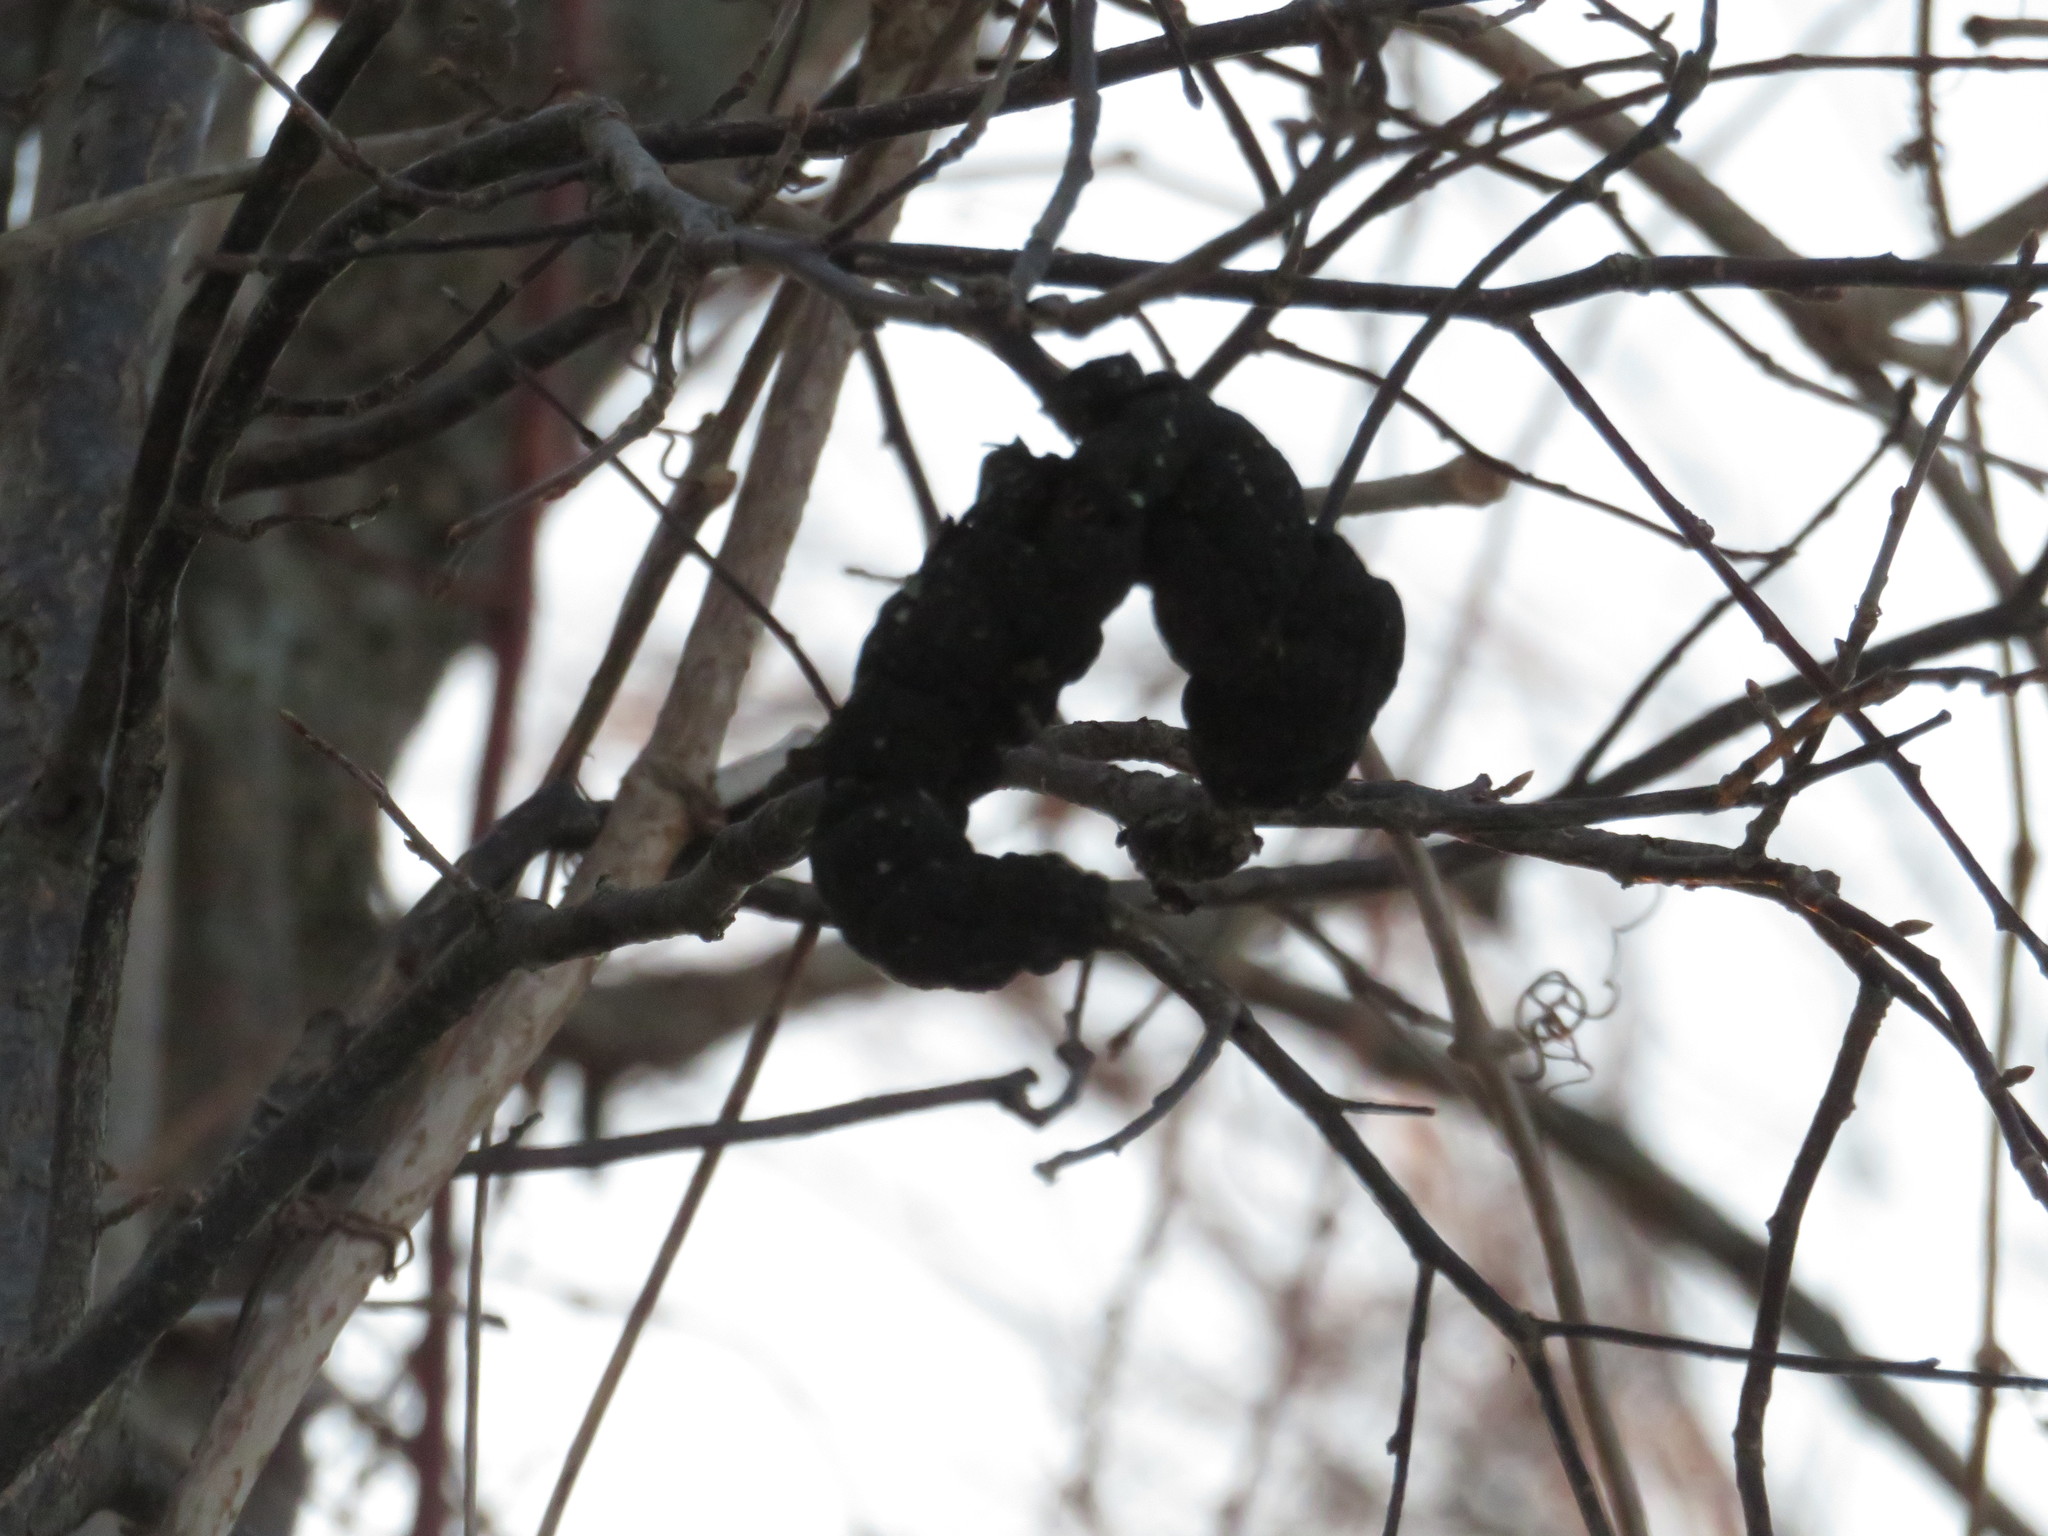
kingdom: Fungi
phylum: Ascomycota
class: Dothideomycetes
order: Venturiales
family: Venturiaceae
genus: Apiosporina
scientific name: Apiosporina morbosa
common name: Black knot
